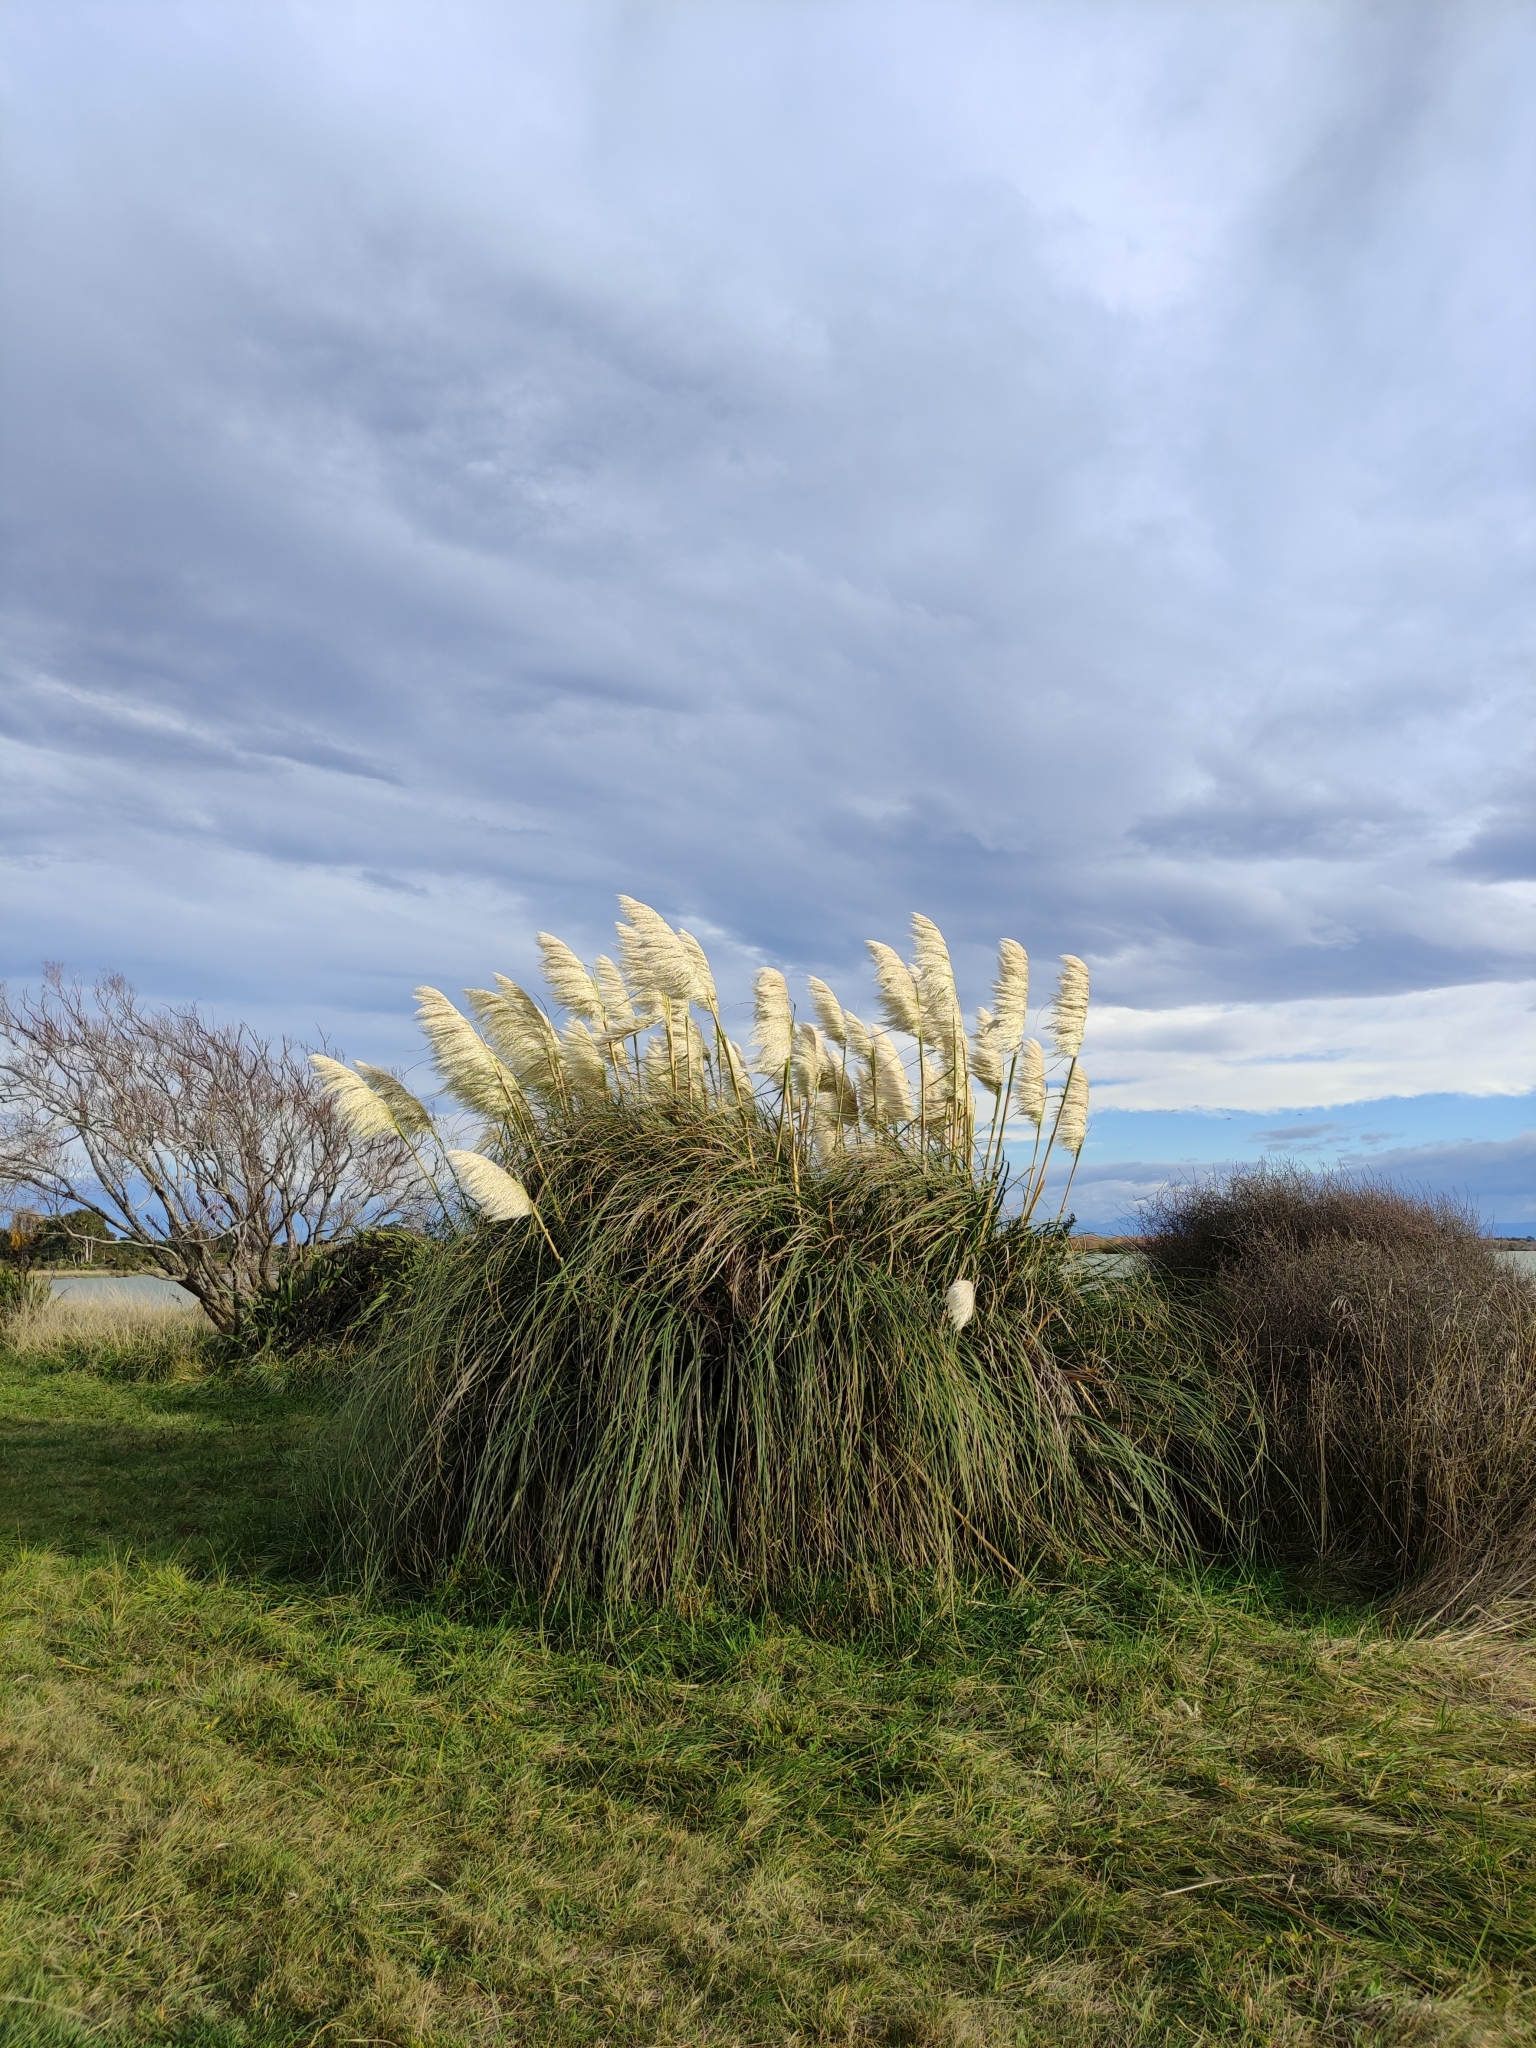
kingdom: Plantae
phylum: Tracheophyta
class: Liliopsida
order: Poales
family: Poaceae
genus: Cortaderia
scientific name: Cortaderia selloana
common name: Uruguayan pampas grass
